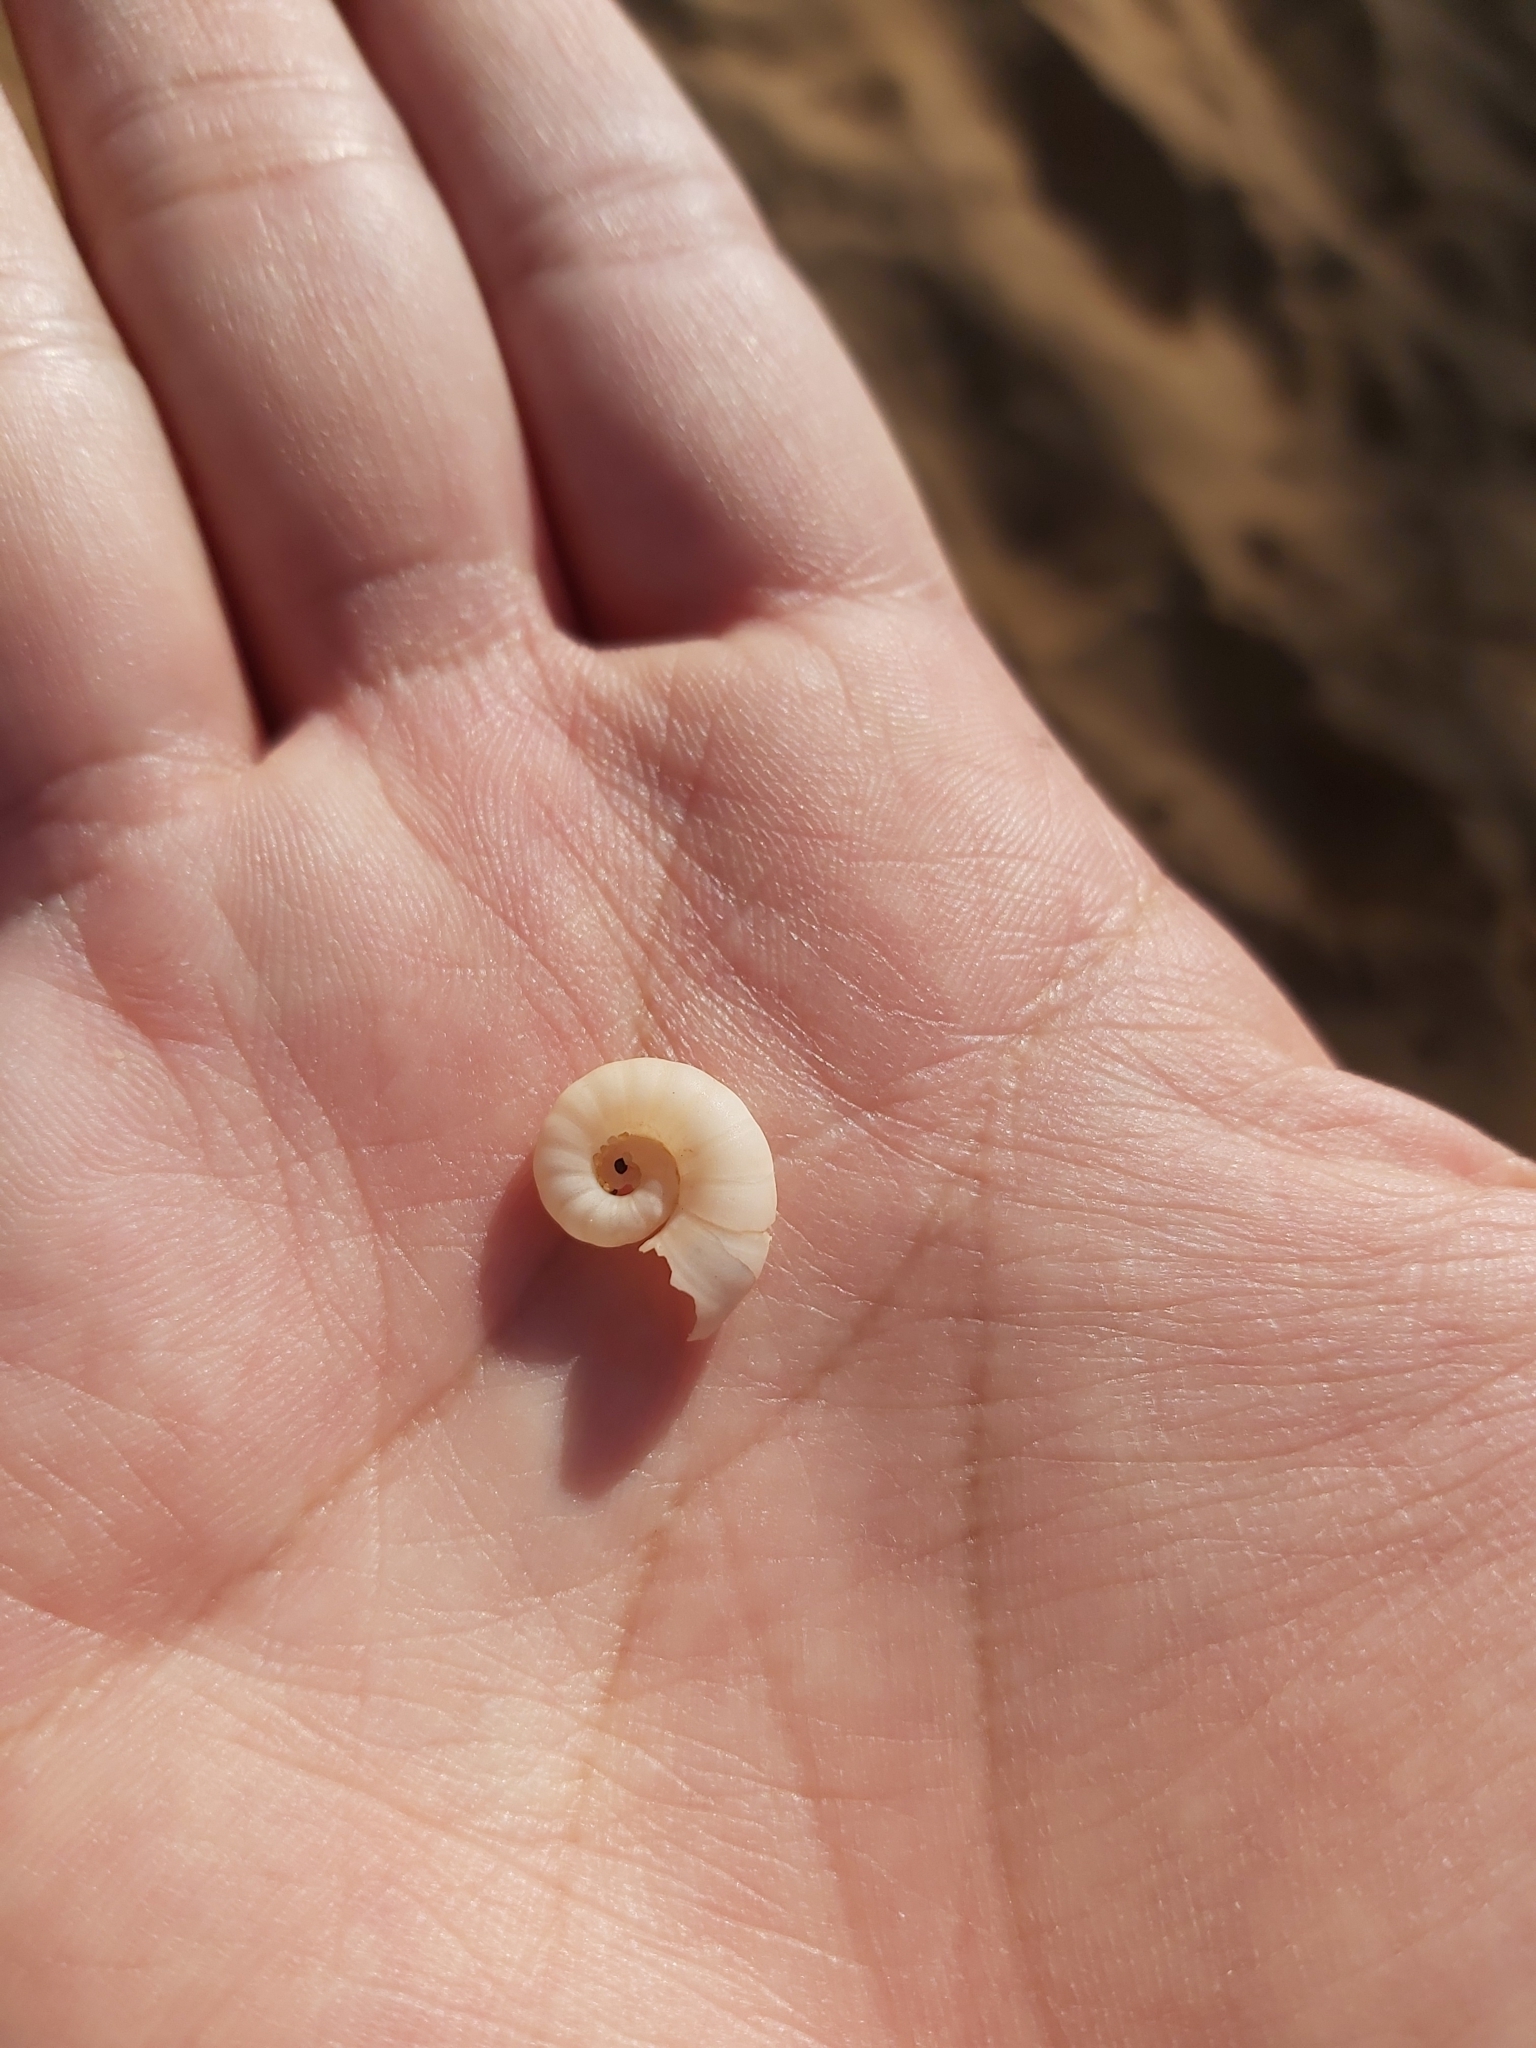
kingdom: Animalia
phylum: Mollusca
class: Cephalopoda
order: Spirulida
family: Spirulidae
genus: Spirula
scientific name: Spirula spirula
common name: Ram's horn squid
